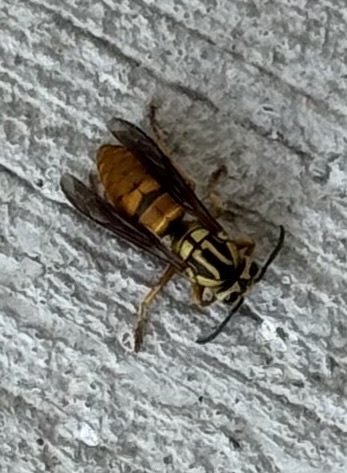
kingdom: Animalia
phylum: Arthropoda
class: Insecta
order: Hymenoptera
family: Vespidae
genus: Vespula
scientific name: Vespula squamosa
